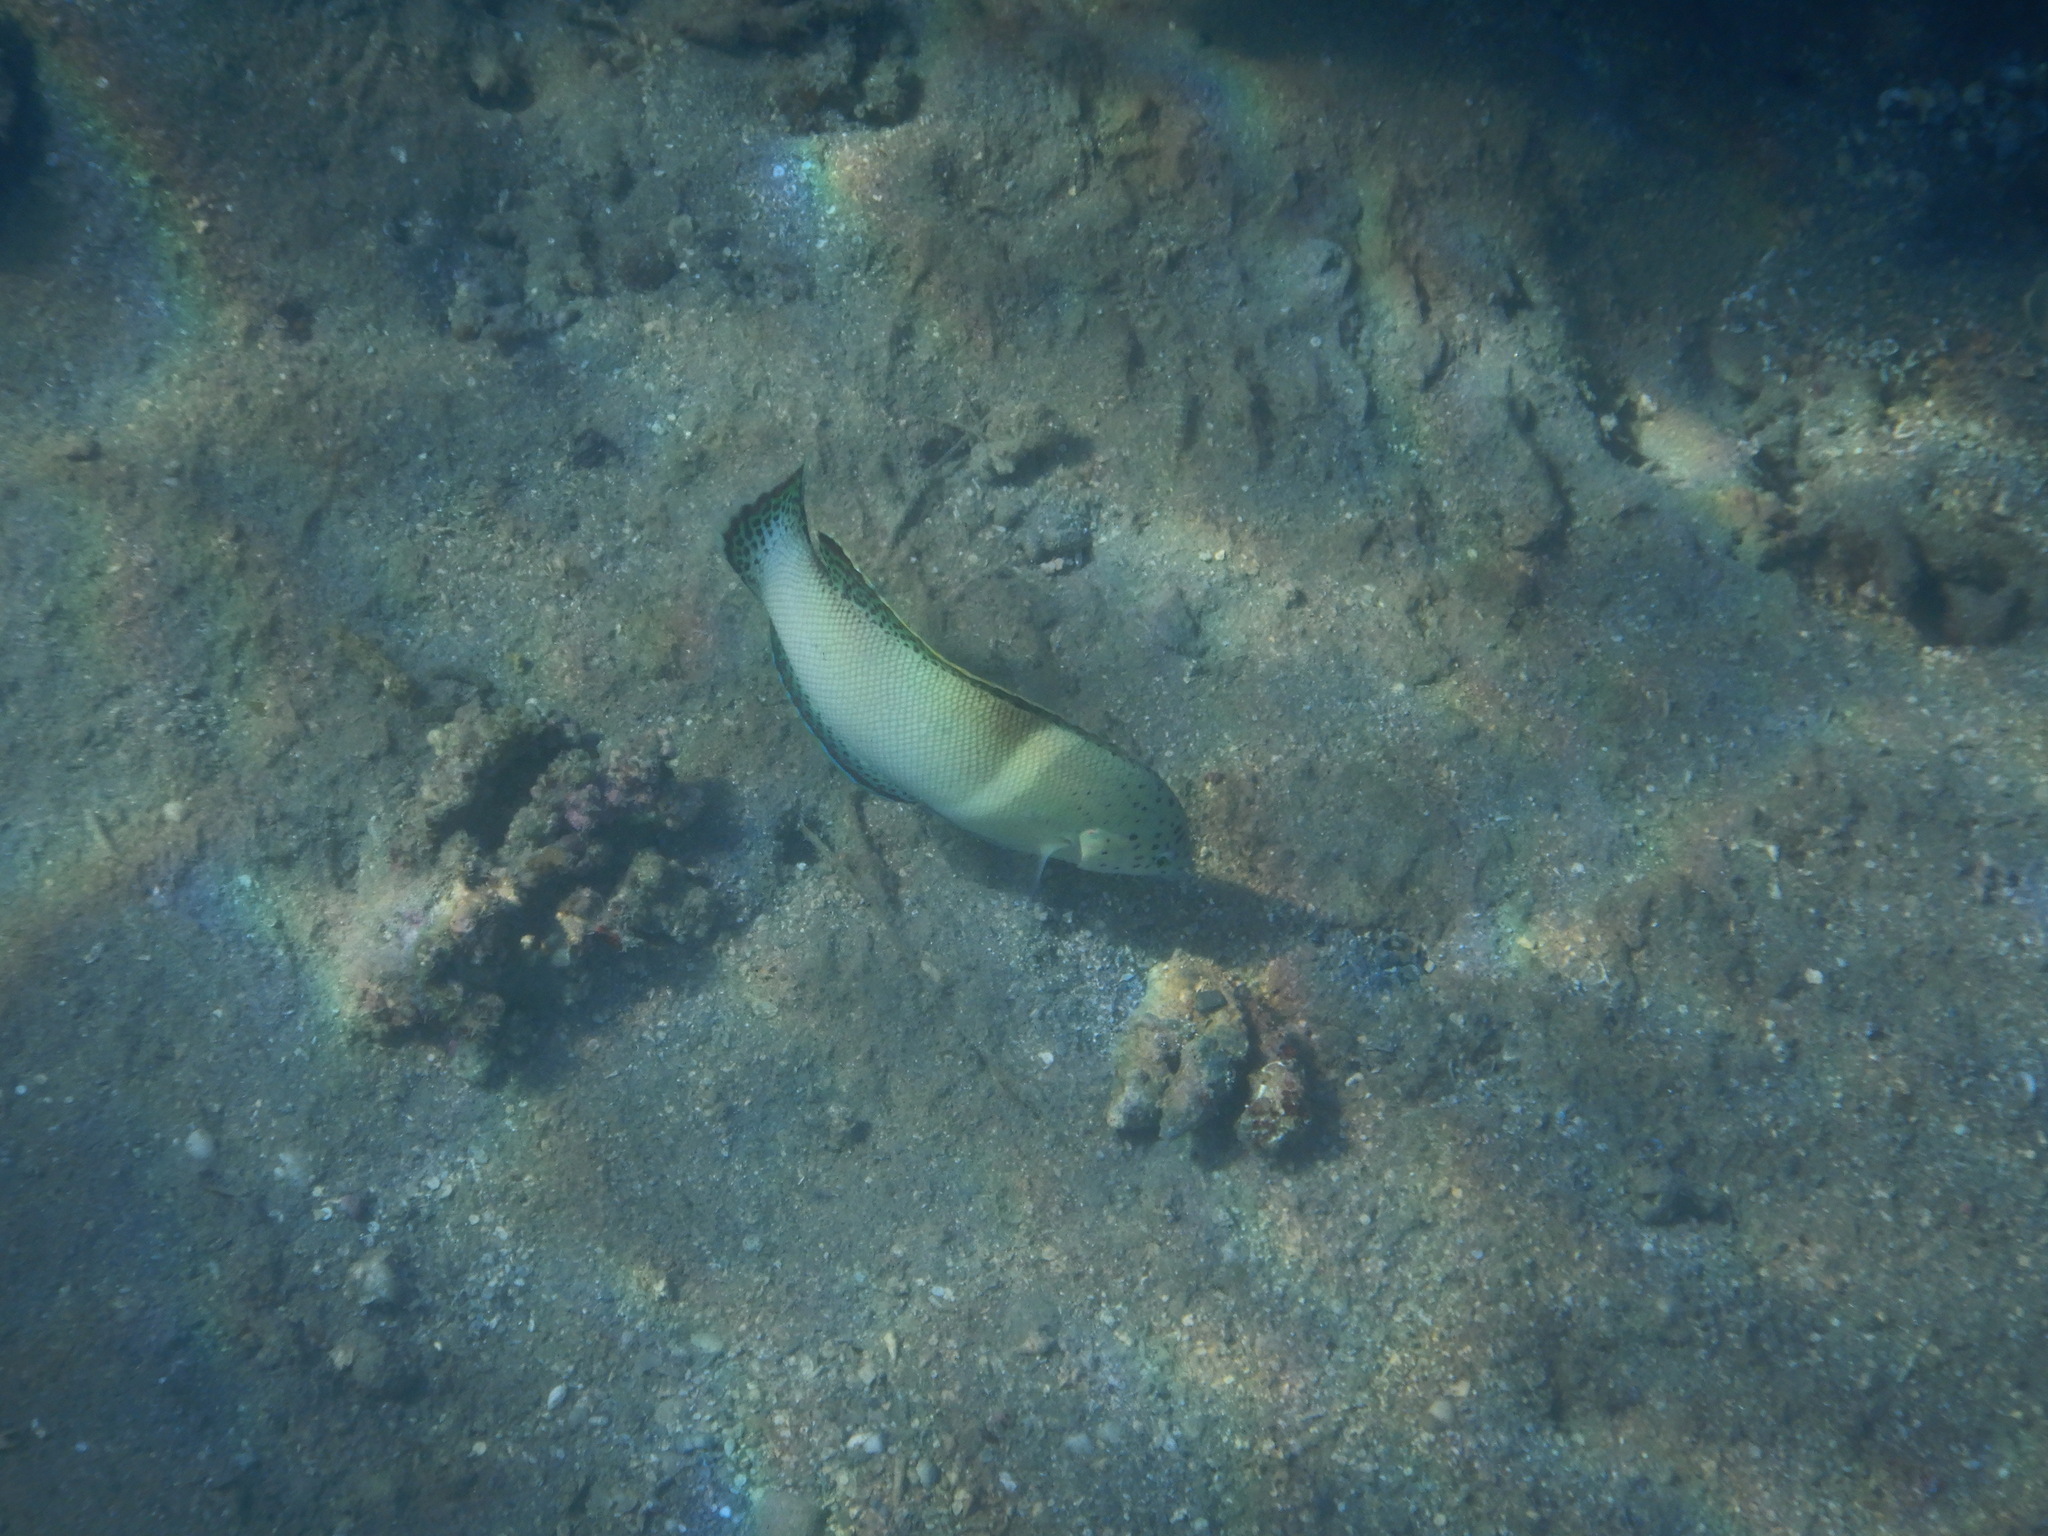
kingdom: Animalia
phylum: Chordata
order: Perciformes
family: Labridae
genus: Coris
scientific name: Coris aygula
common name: Clown coris
